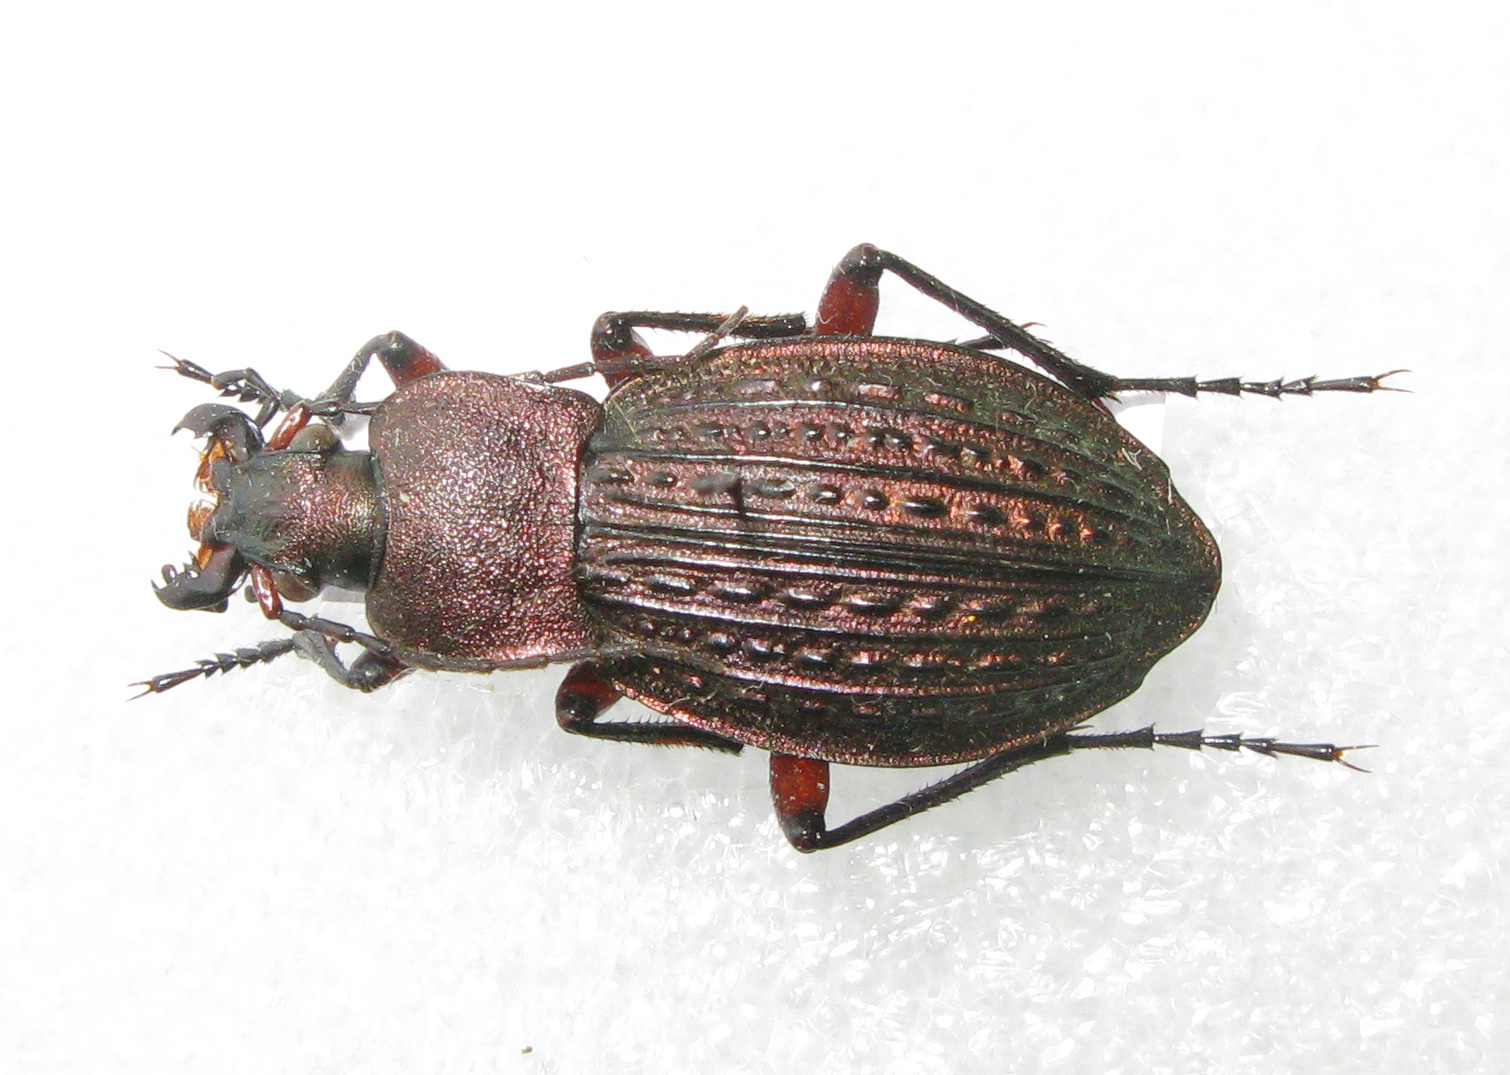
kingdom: Animalia
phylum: Arthropoda
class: Insecta
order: Coleoptera
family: Carabidae
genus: Carabus
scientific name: Carabus cancellatus
